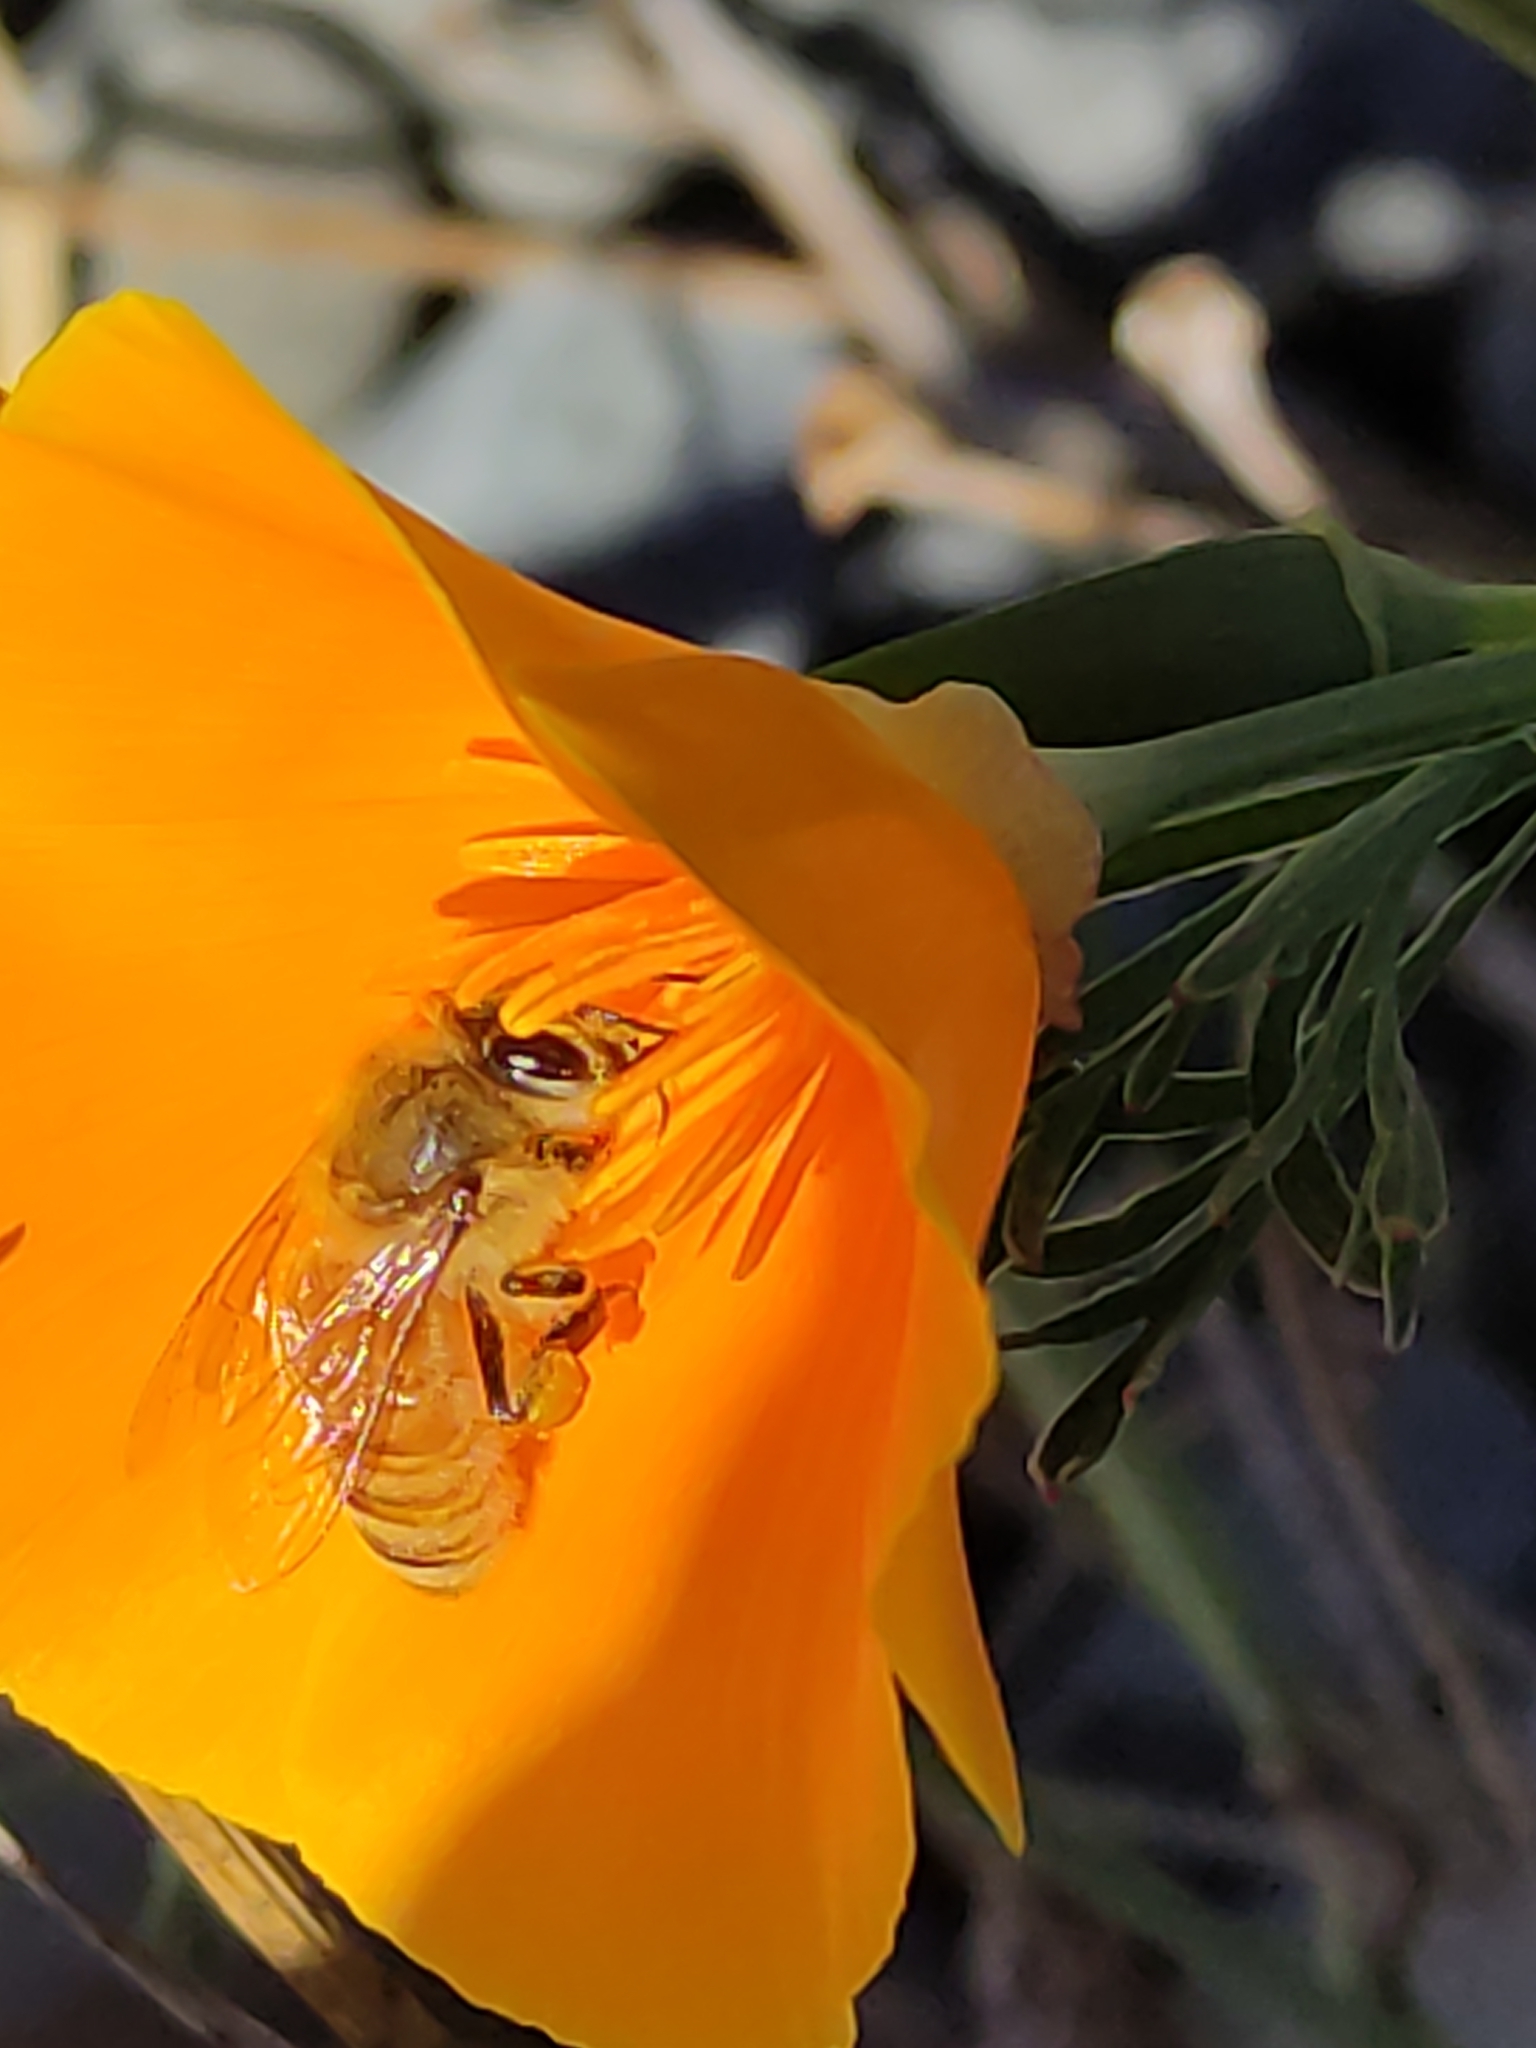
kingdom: Animalia
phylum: Arthropoda
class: Insecta
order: Hymenoptera
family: Apidae
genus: Apis
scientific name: Apis mellifera
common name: Honey bee
